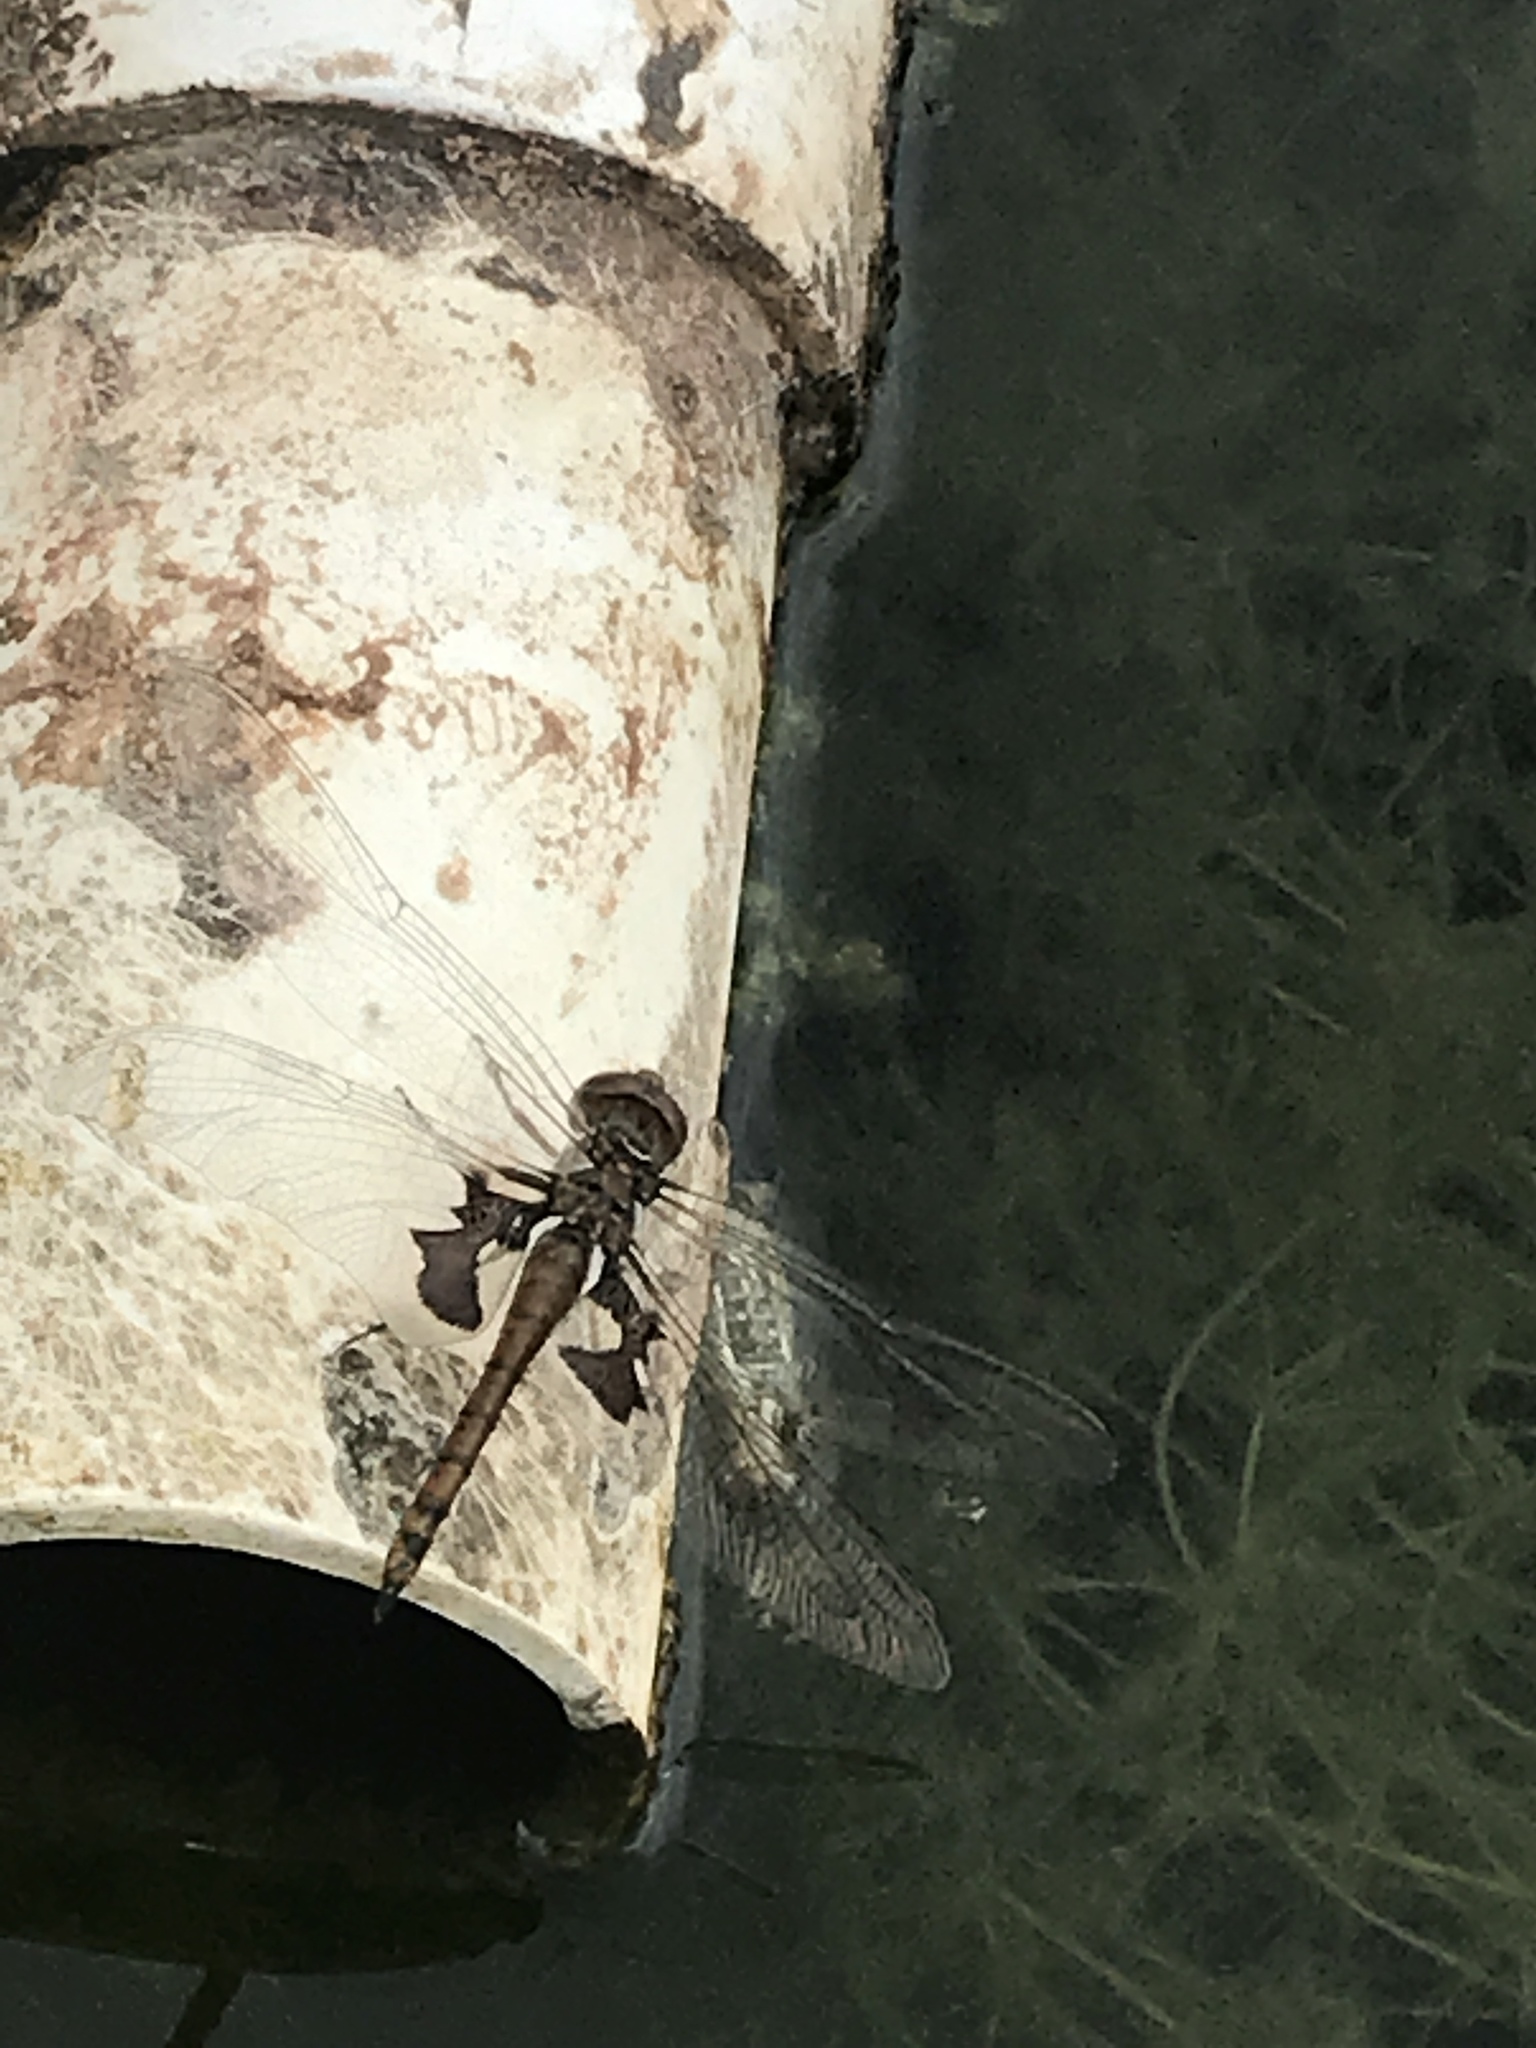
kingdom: Animalia
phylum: Arthropoda
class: Insecta
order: Odonata
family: Libellulidae
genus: Tramea
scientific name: Tramea onusta
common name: Red saddlebags
